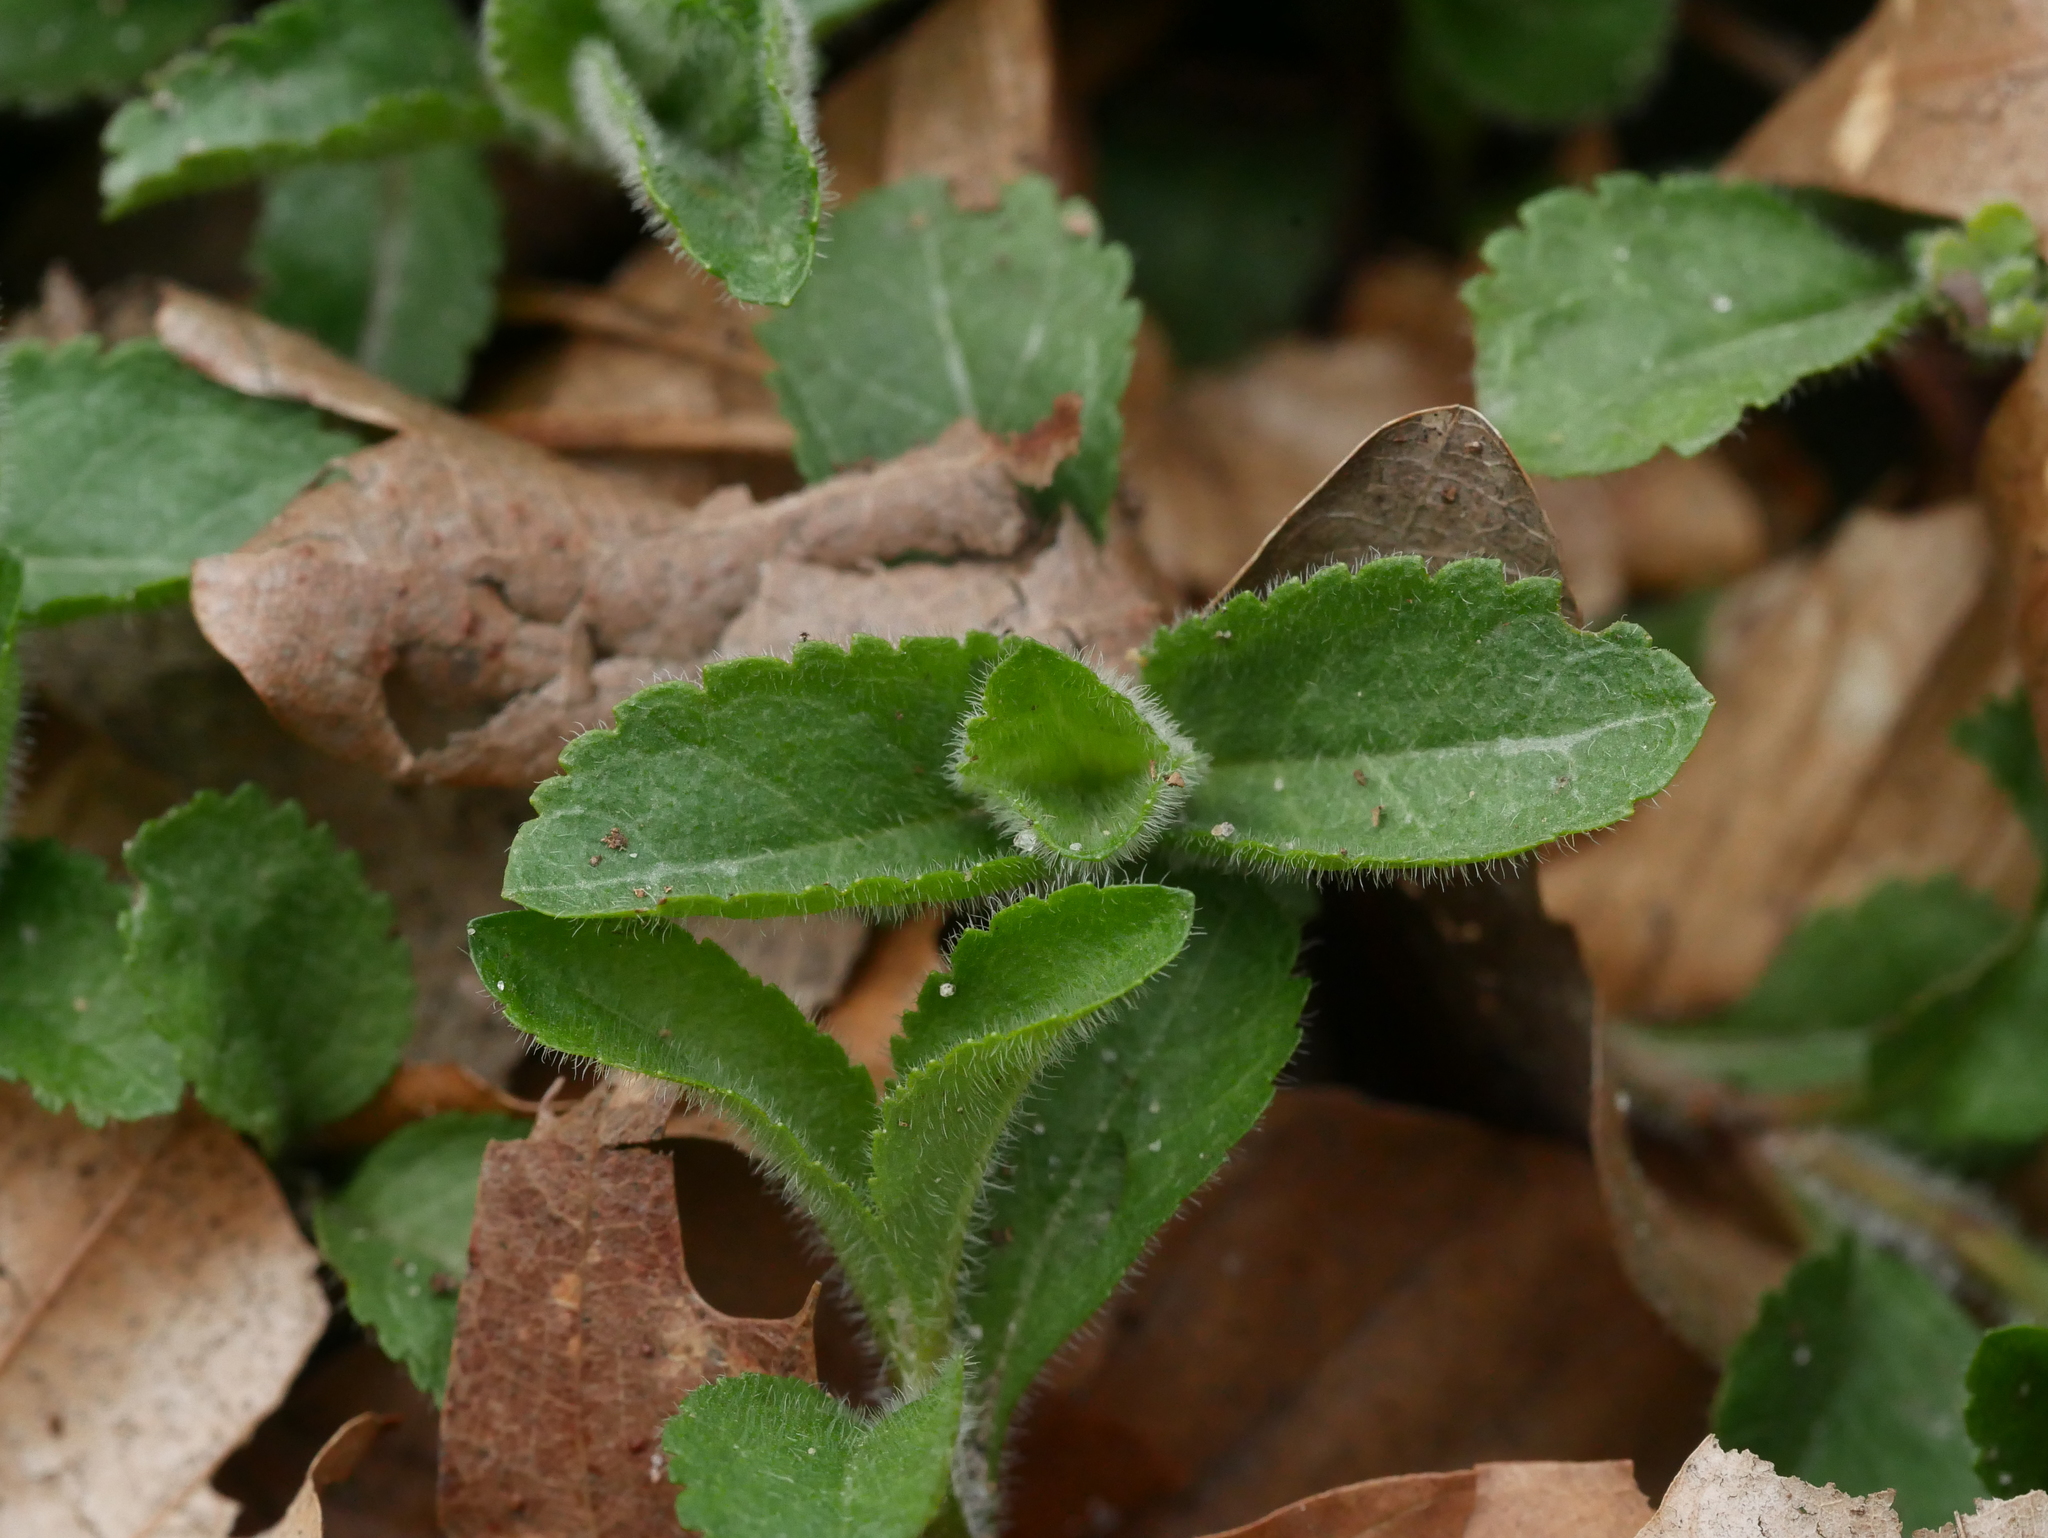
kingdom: Plantae
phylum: Tracheophyta
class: Magnoliopsida
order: Lamiales
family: Plantaginaceae
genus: Veronica
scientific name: Veronica officinalis
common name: Common speedwell
